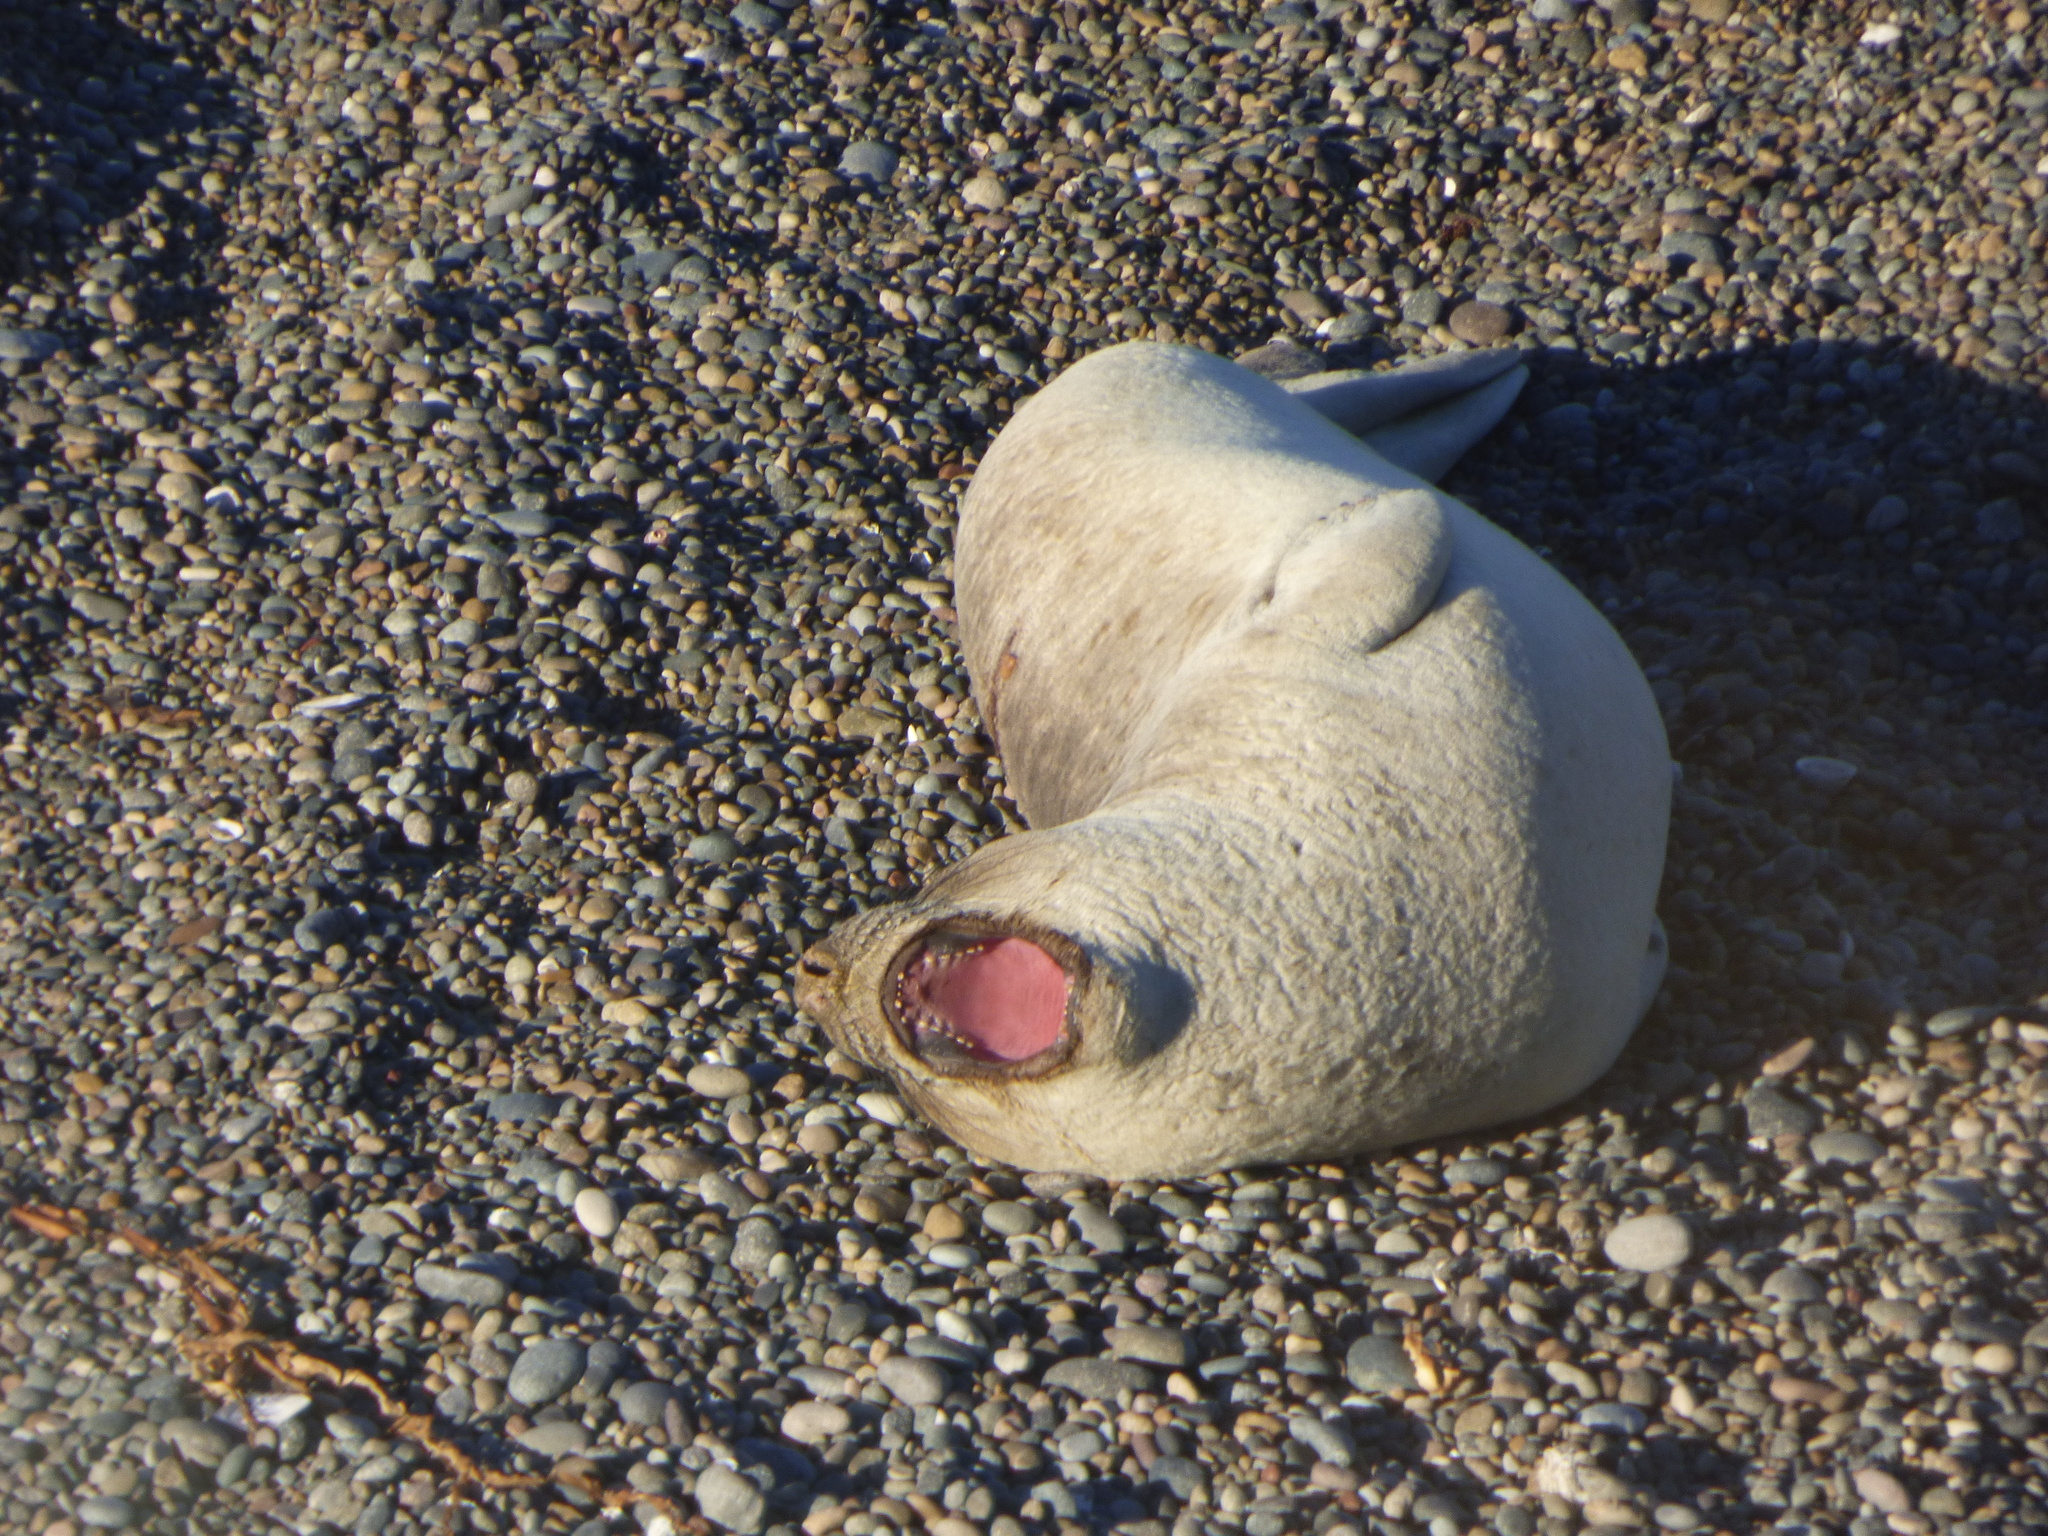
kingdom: Animalia
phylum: Chordata
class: Mammalia
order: Carnivora
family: Phocidae
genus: Mirounga
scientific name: Mirounga leonina
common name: Southern elephant seal
